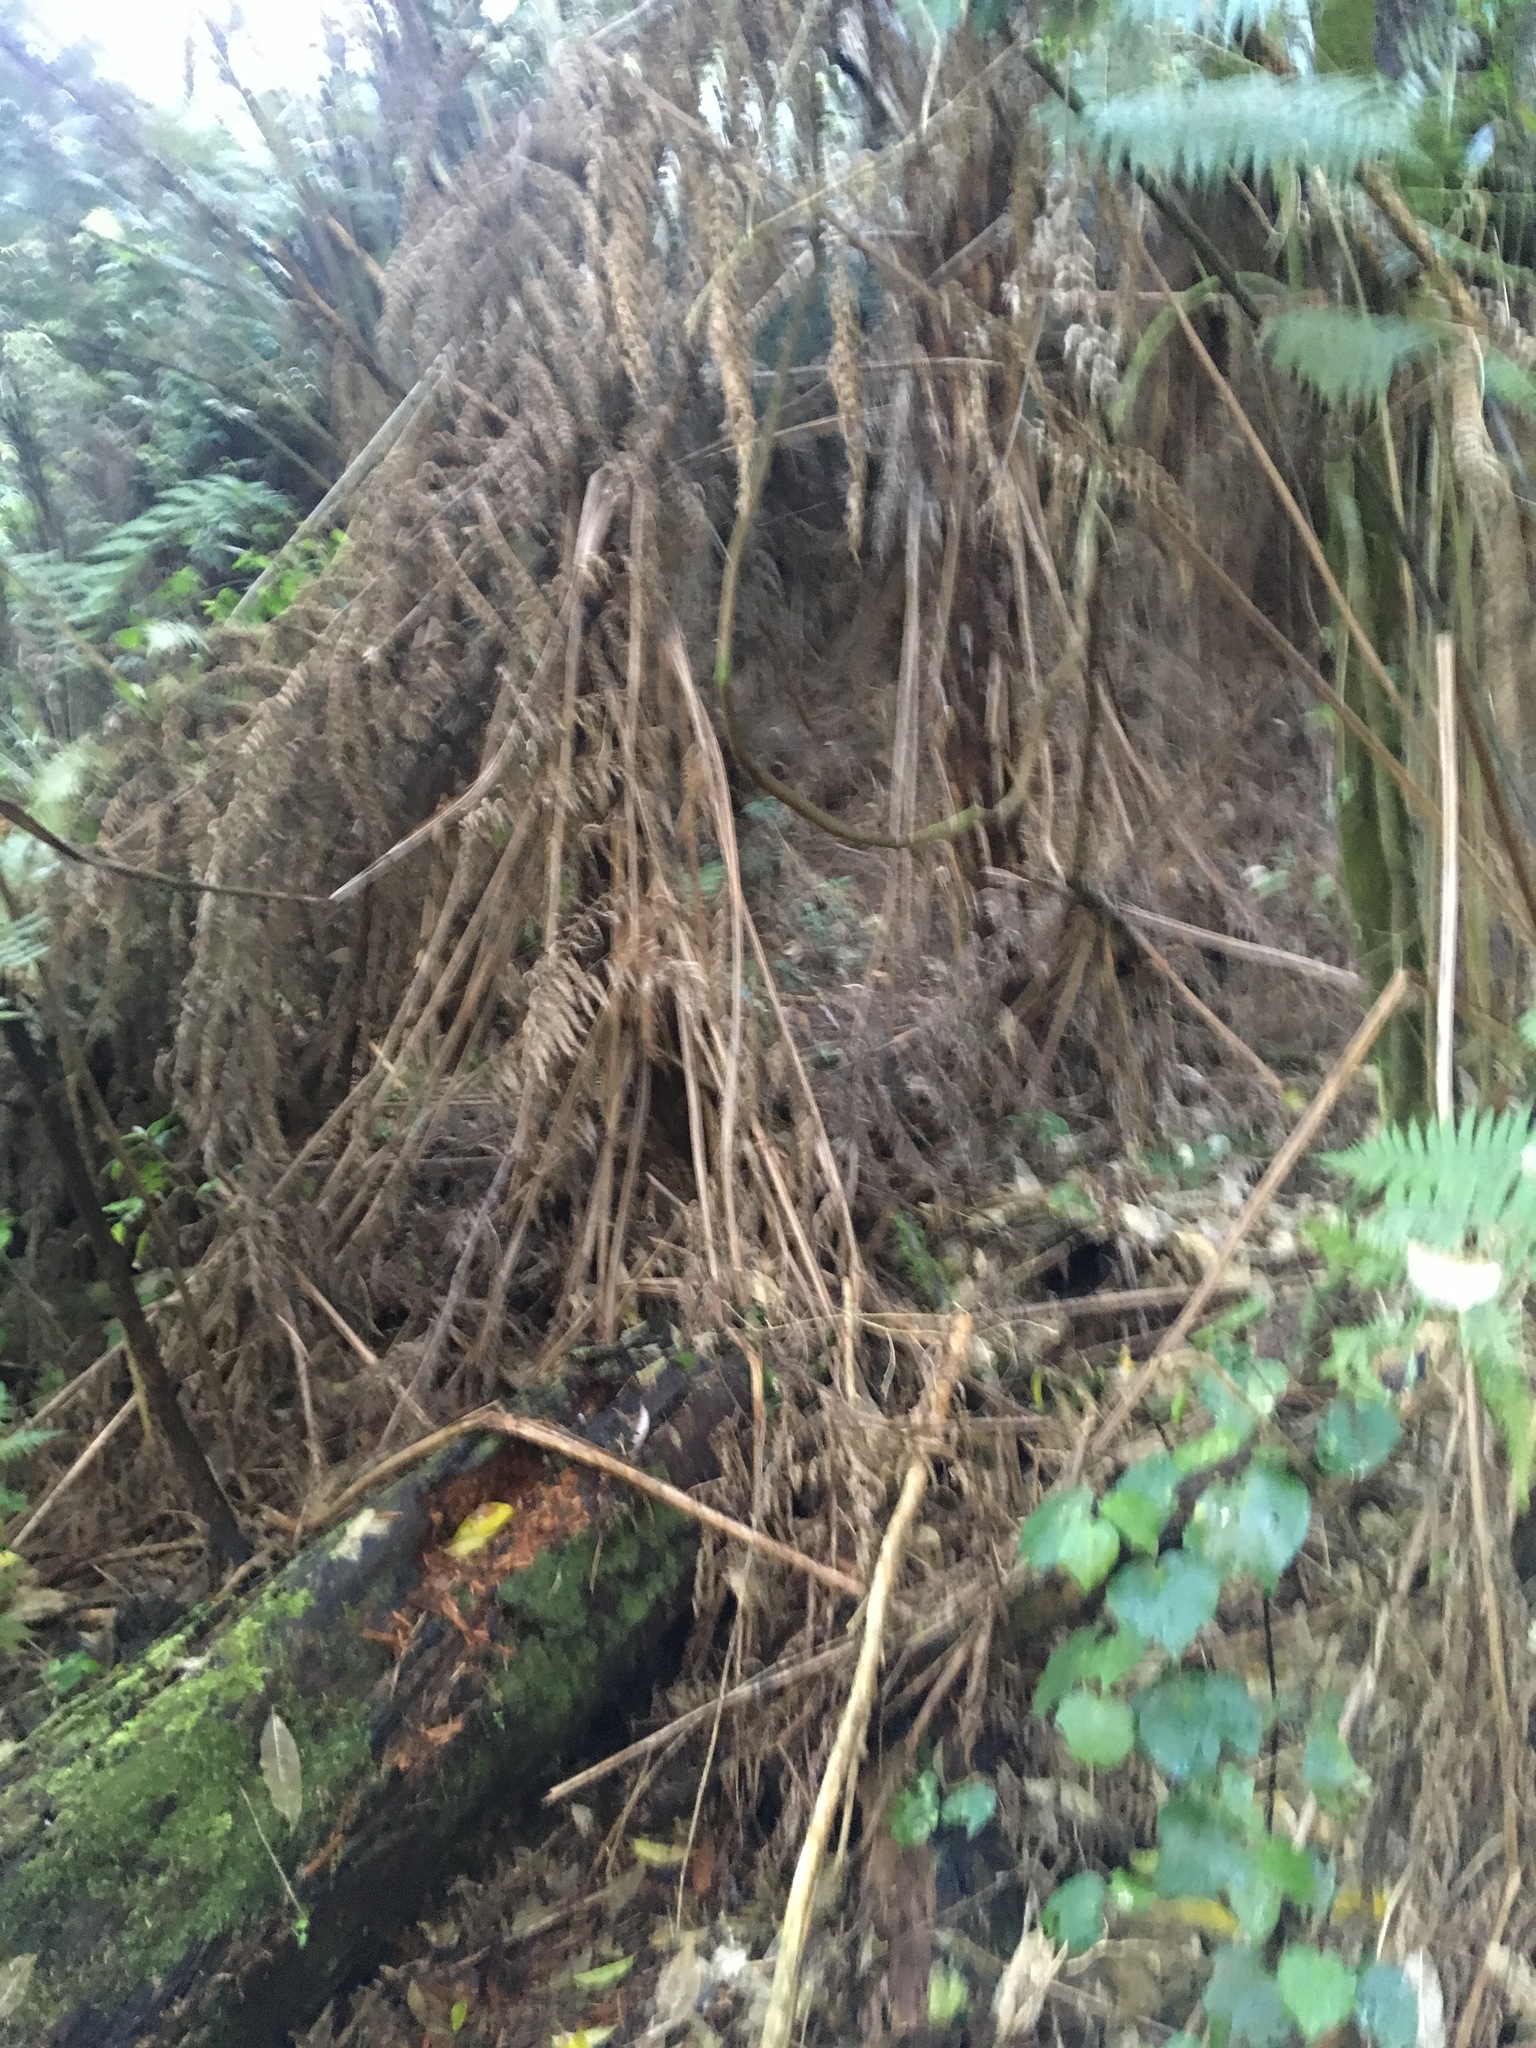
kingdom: Plantae
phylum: Tracheophyta
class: Magnoliopsida
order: Piperales
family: Piperaceae
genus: Macropiper
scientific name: Macropiper excelsum
